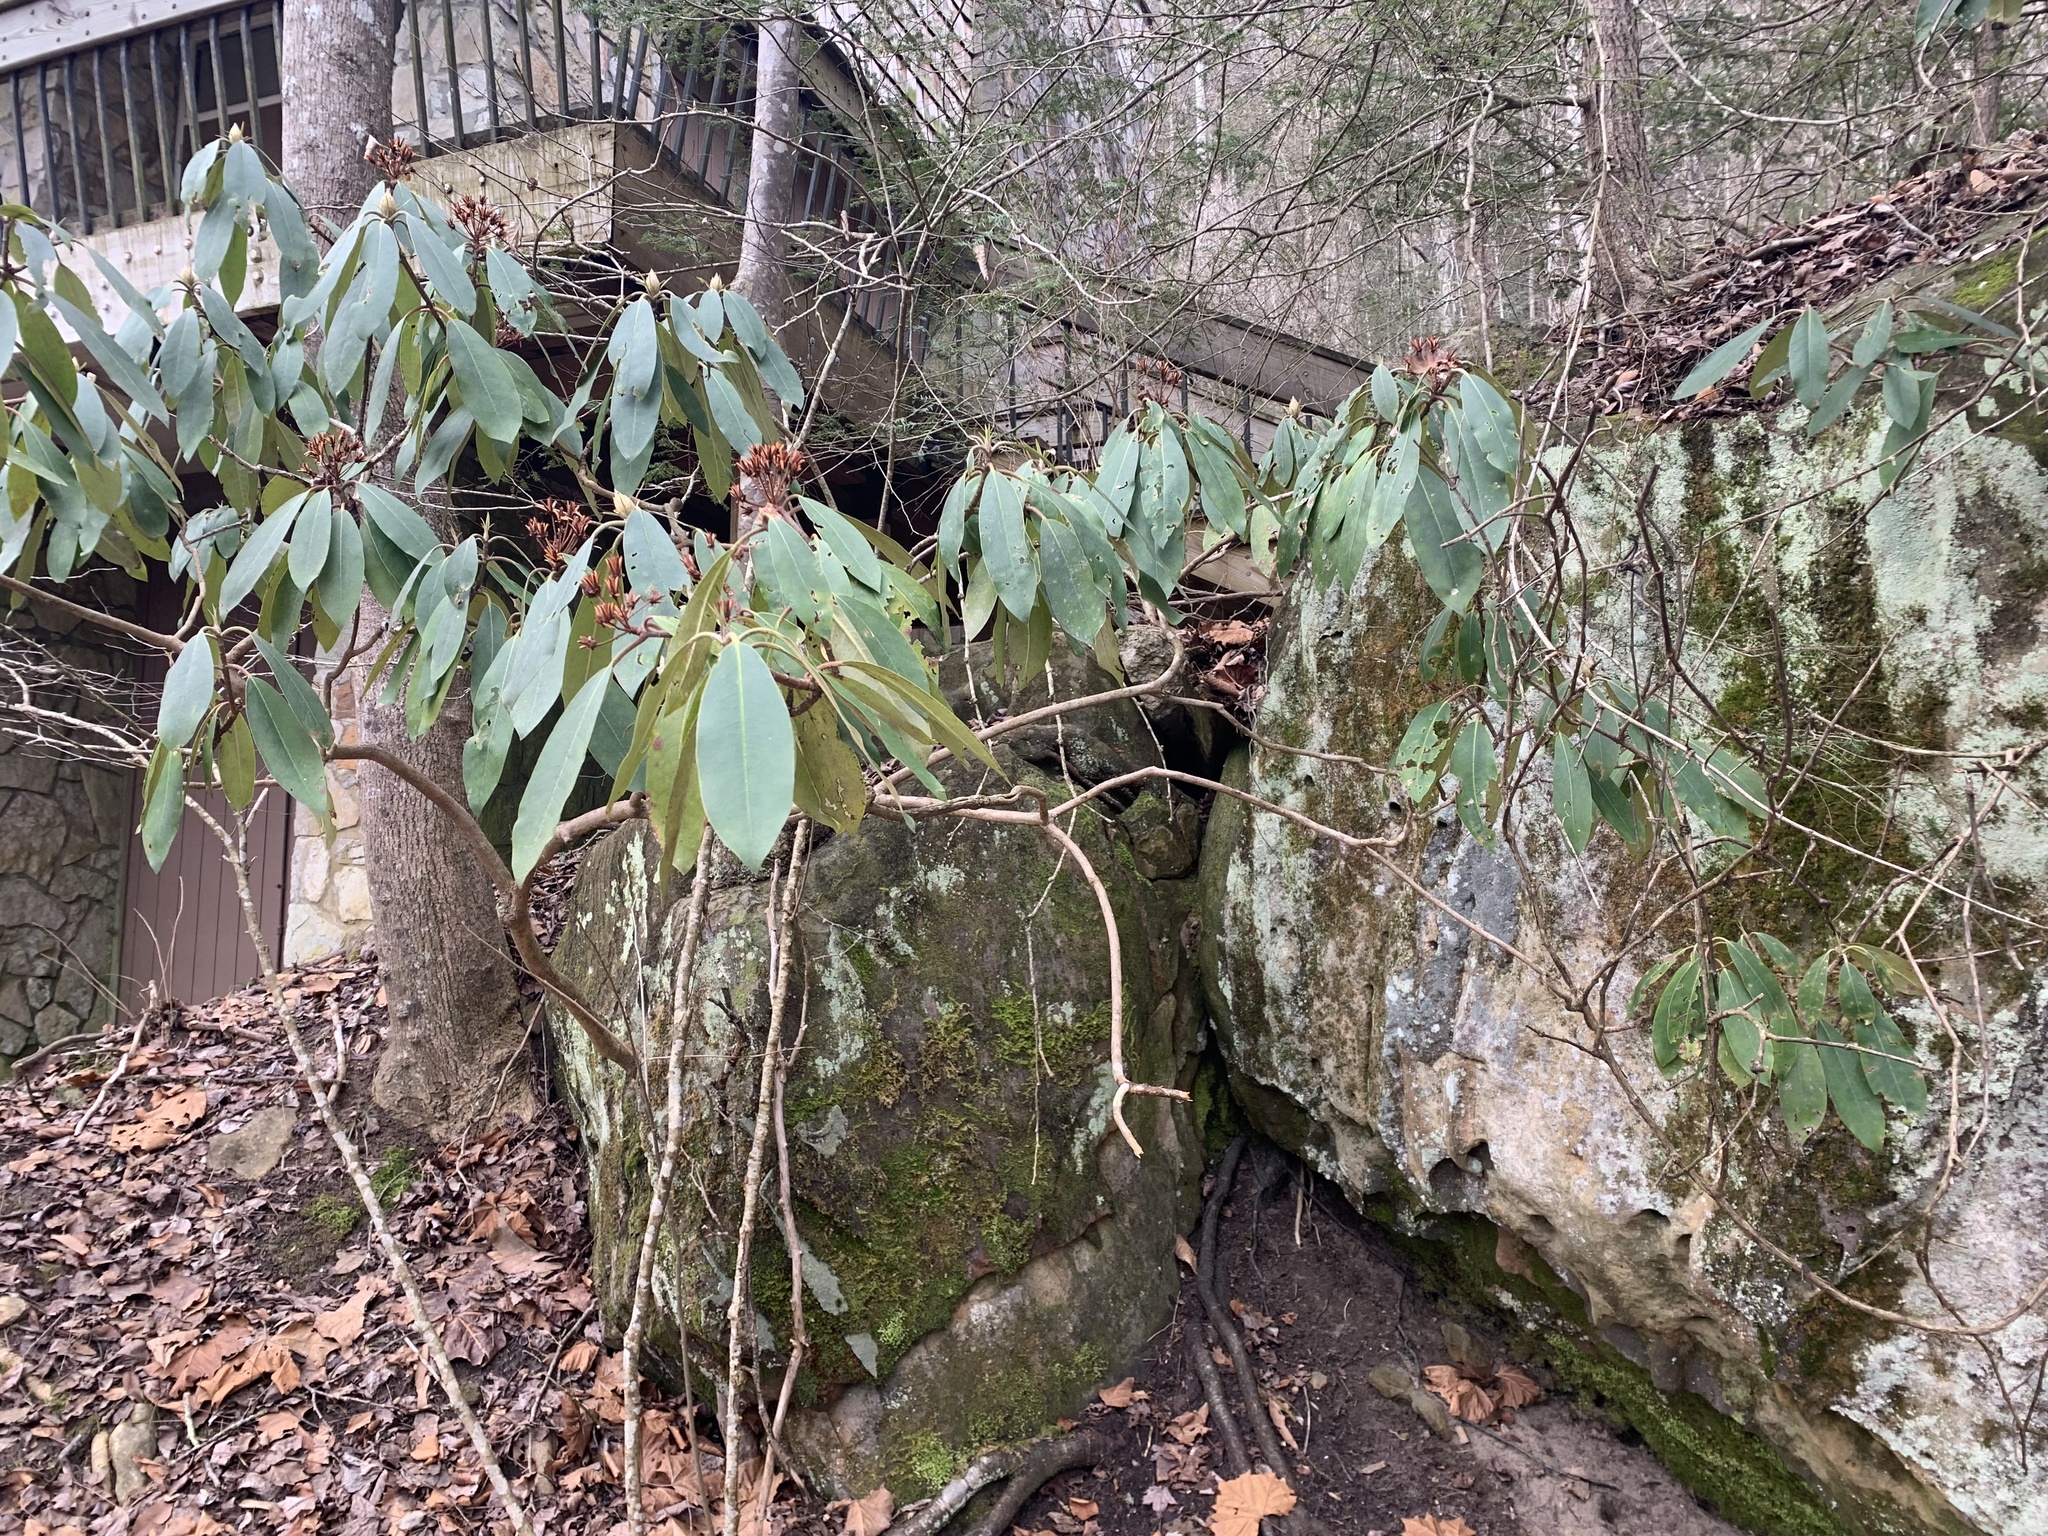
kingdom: Plantae
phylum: Tracheophyta
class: Magnoliopsida
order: Ericales
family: Ericaceae
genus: Rhododendron
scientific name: Rhododendron maximum
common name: Great rhododendron
